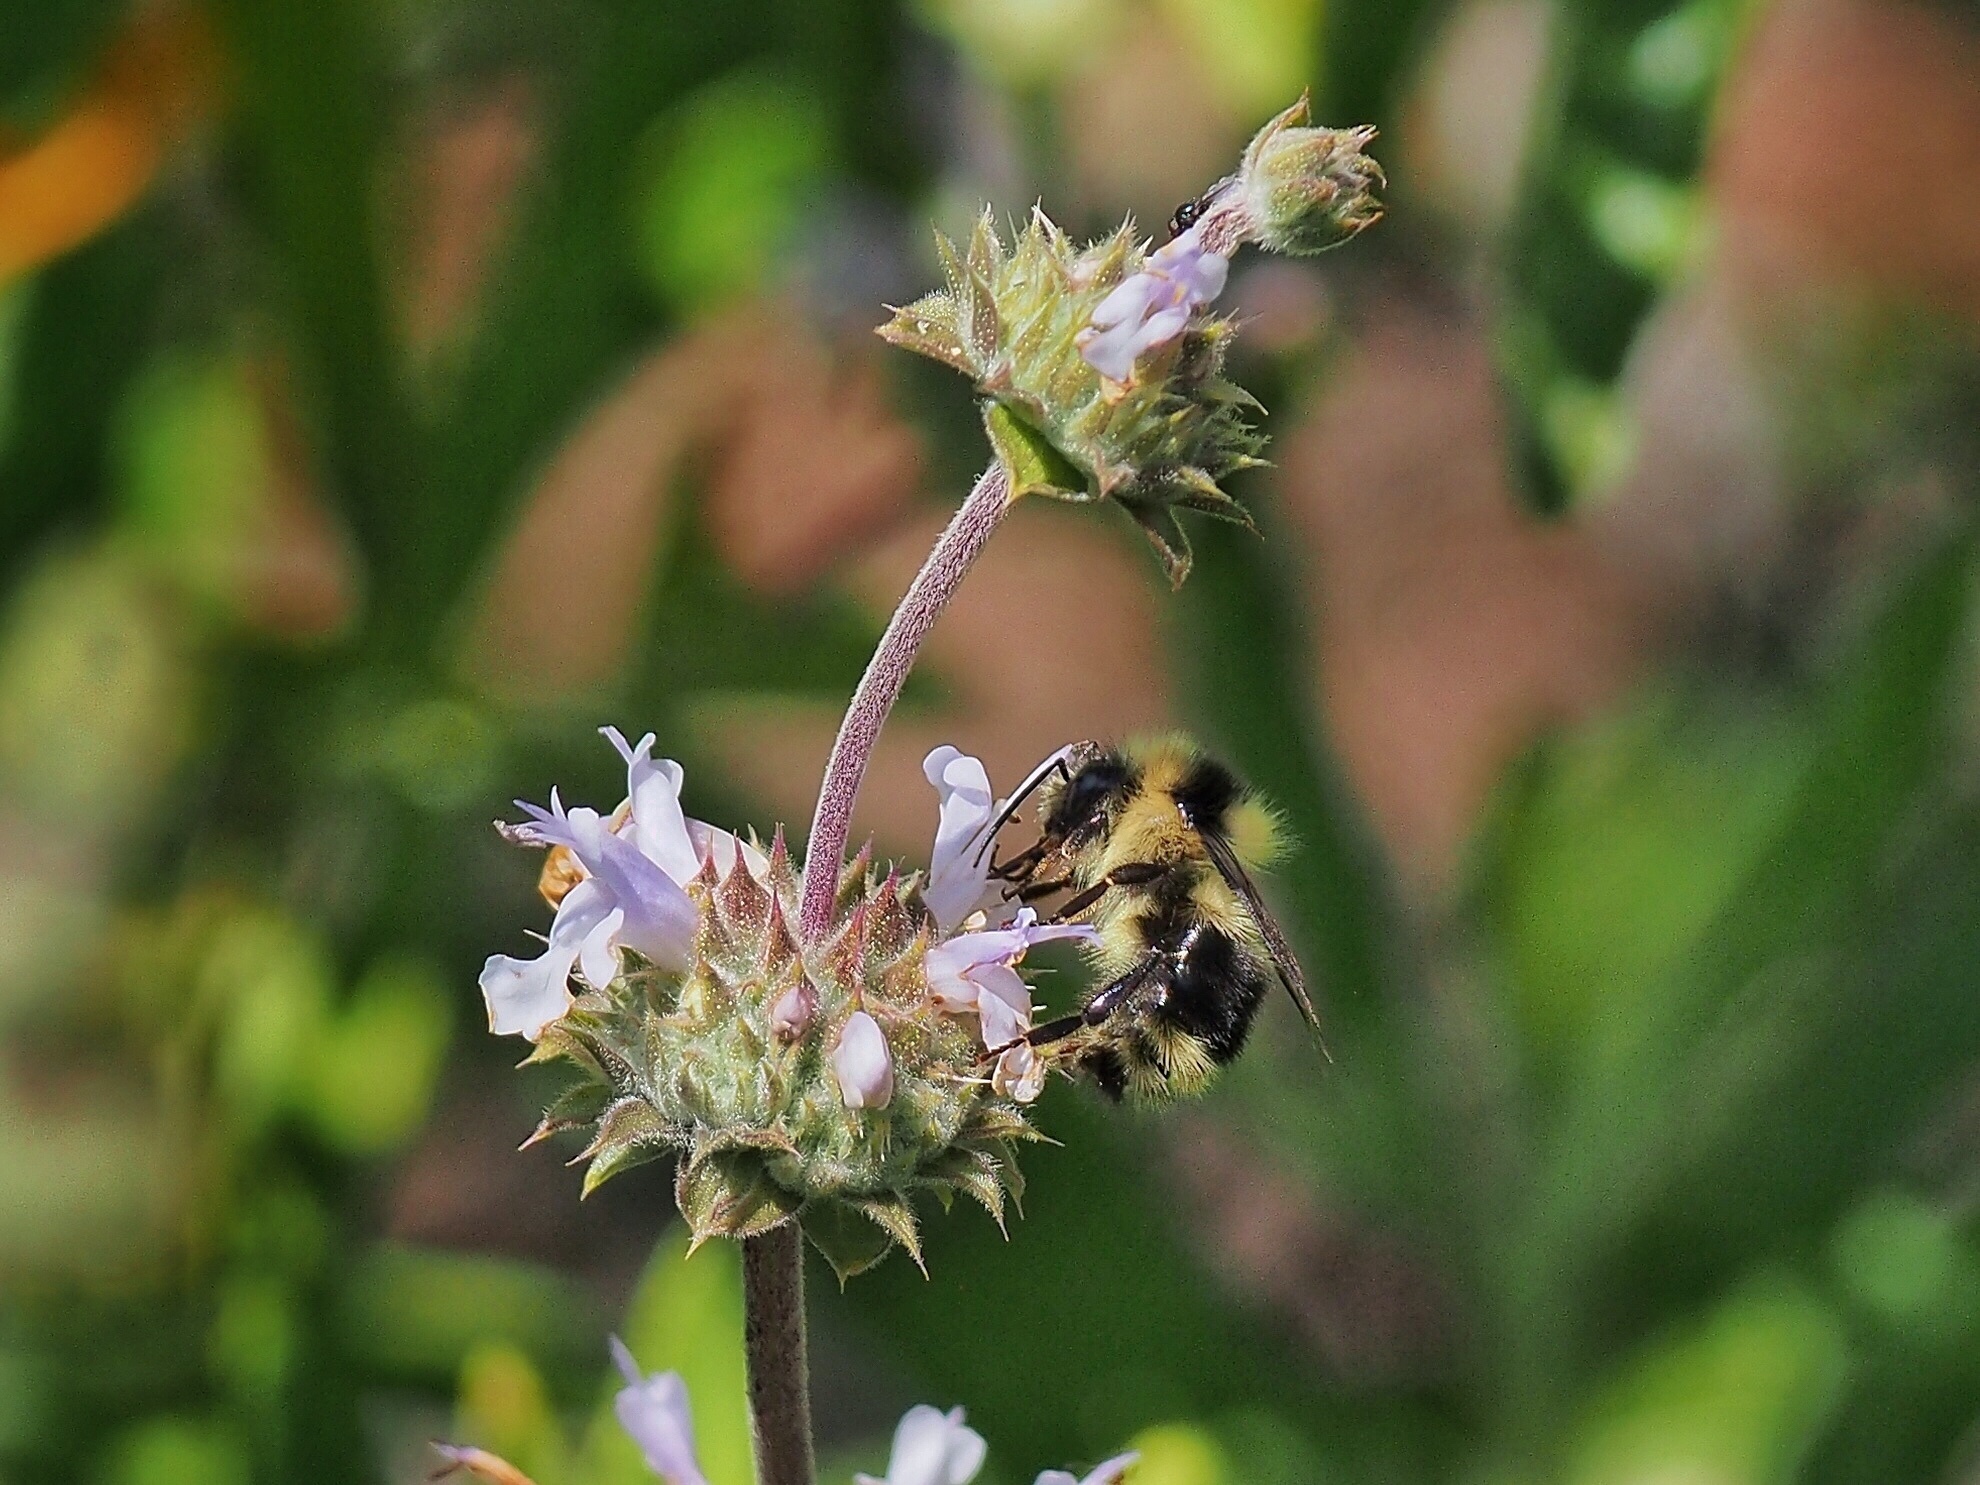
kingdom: Animalia
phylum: Arthropoda
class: Insecta
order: Hymenoptera
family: Apidae
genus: Bombus
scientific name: Bombus melanopygus
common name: Black tail bumble bee
